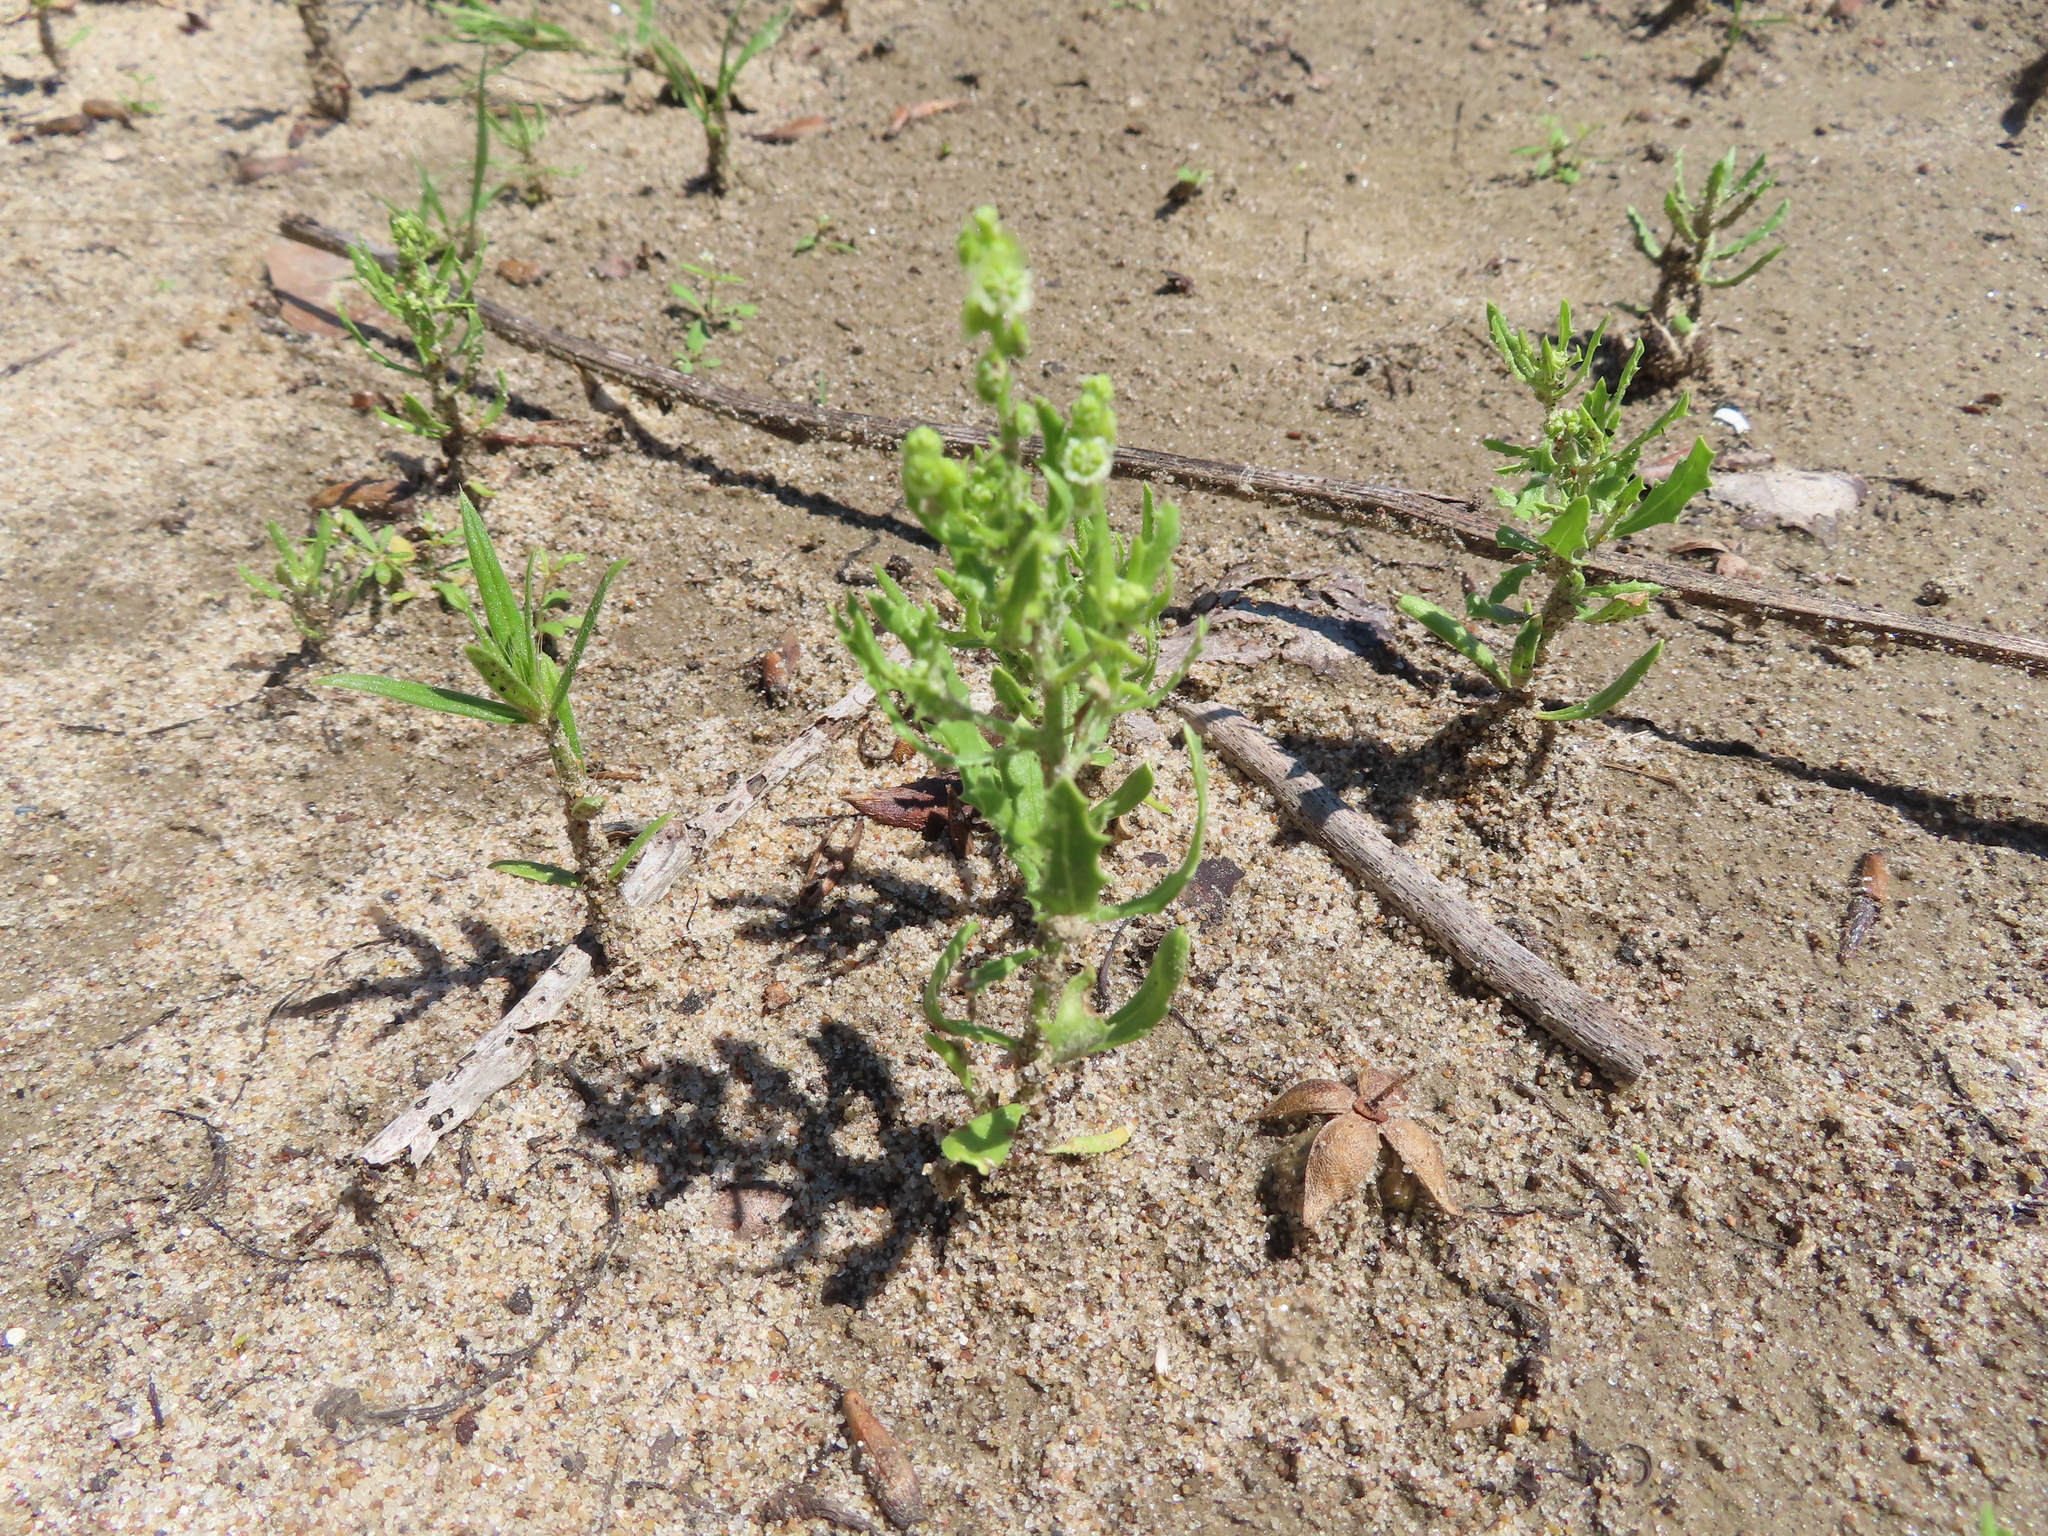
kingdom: Plantae
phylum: Tracheophyta
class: Magnoliopsida
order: Caryophyllales
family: Amaranthaceae
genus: Dysphania
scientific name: Dysphania atriplicifolia
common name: Plains tumbleweed
